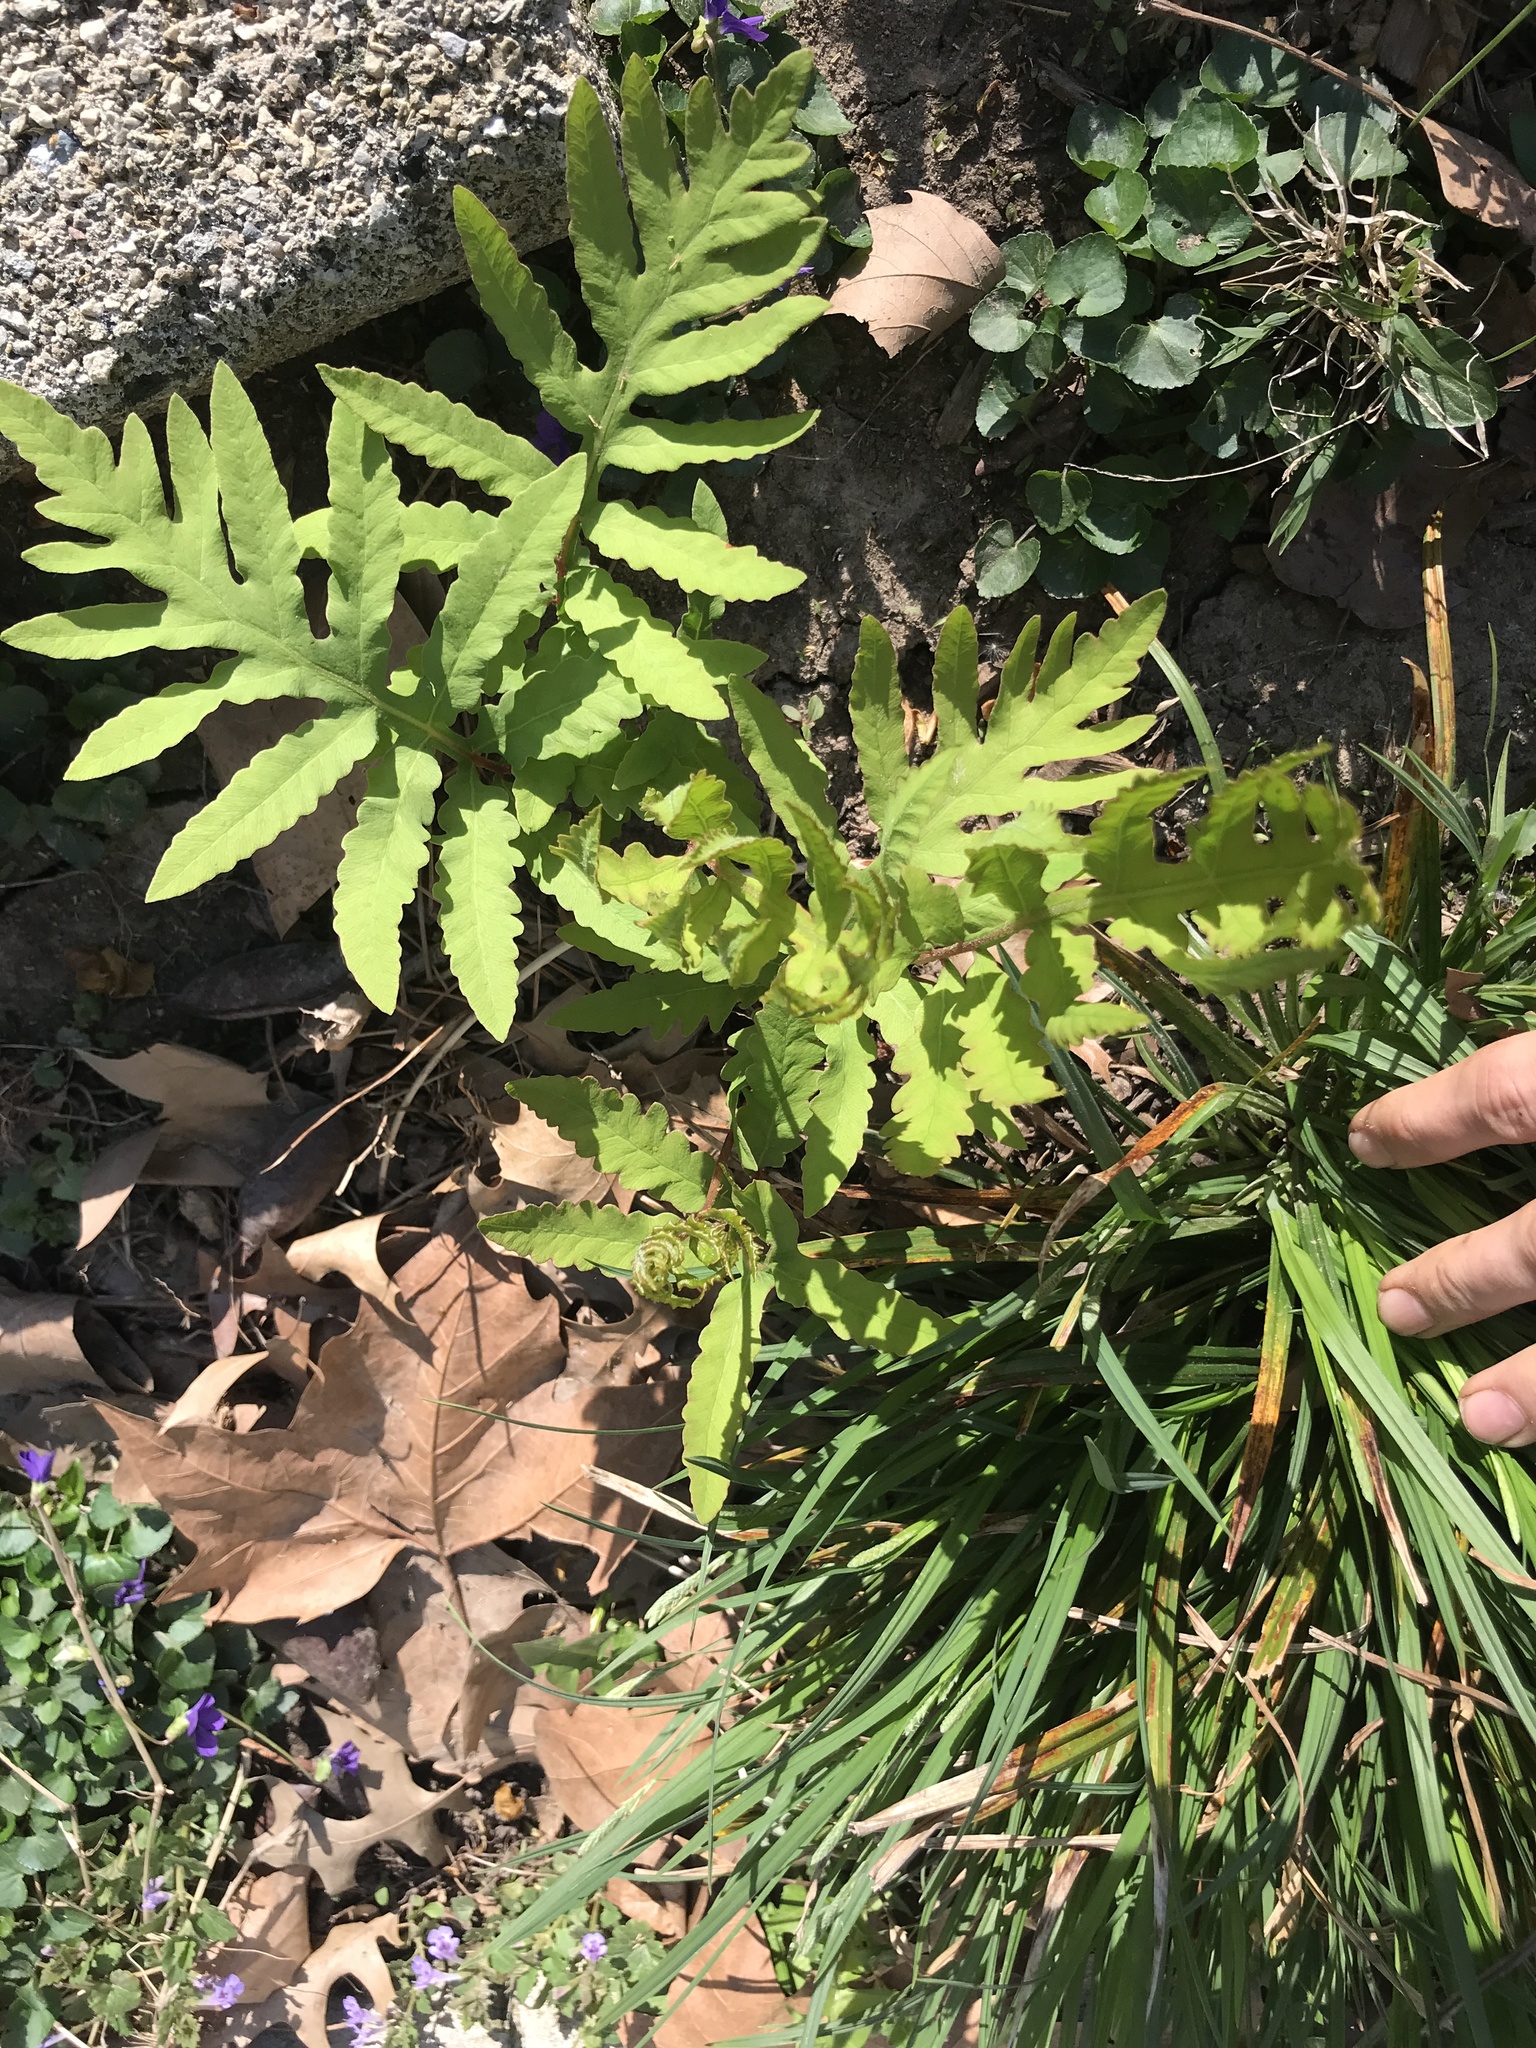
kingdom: Plantae
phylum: Tracheophyta
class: Polypodiopsida
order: Polypodiales
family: Onocleaceae
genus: Onoclea
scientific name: Onoclea sensibilis
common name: Sensitive fern
